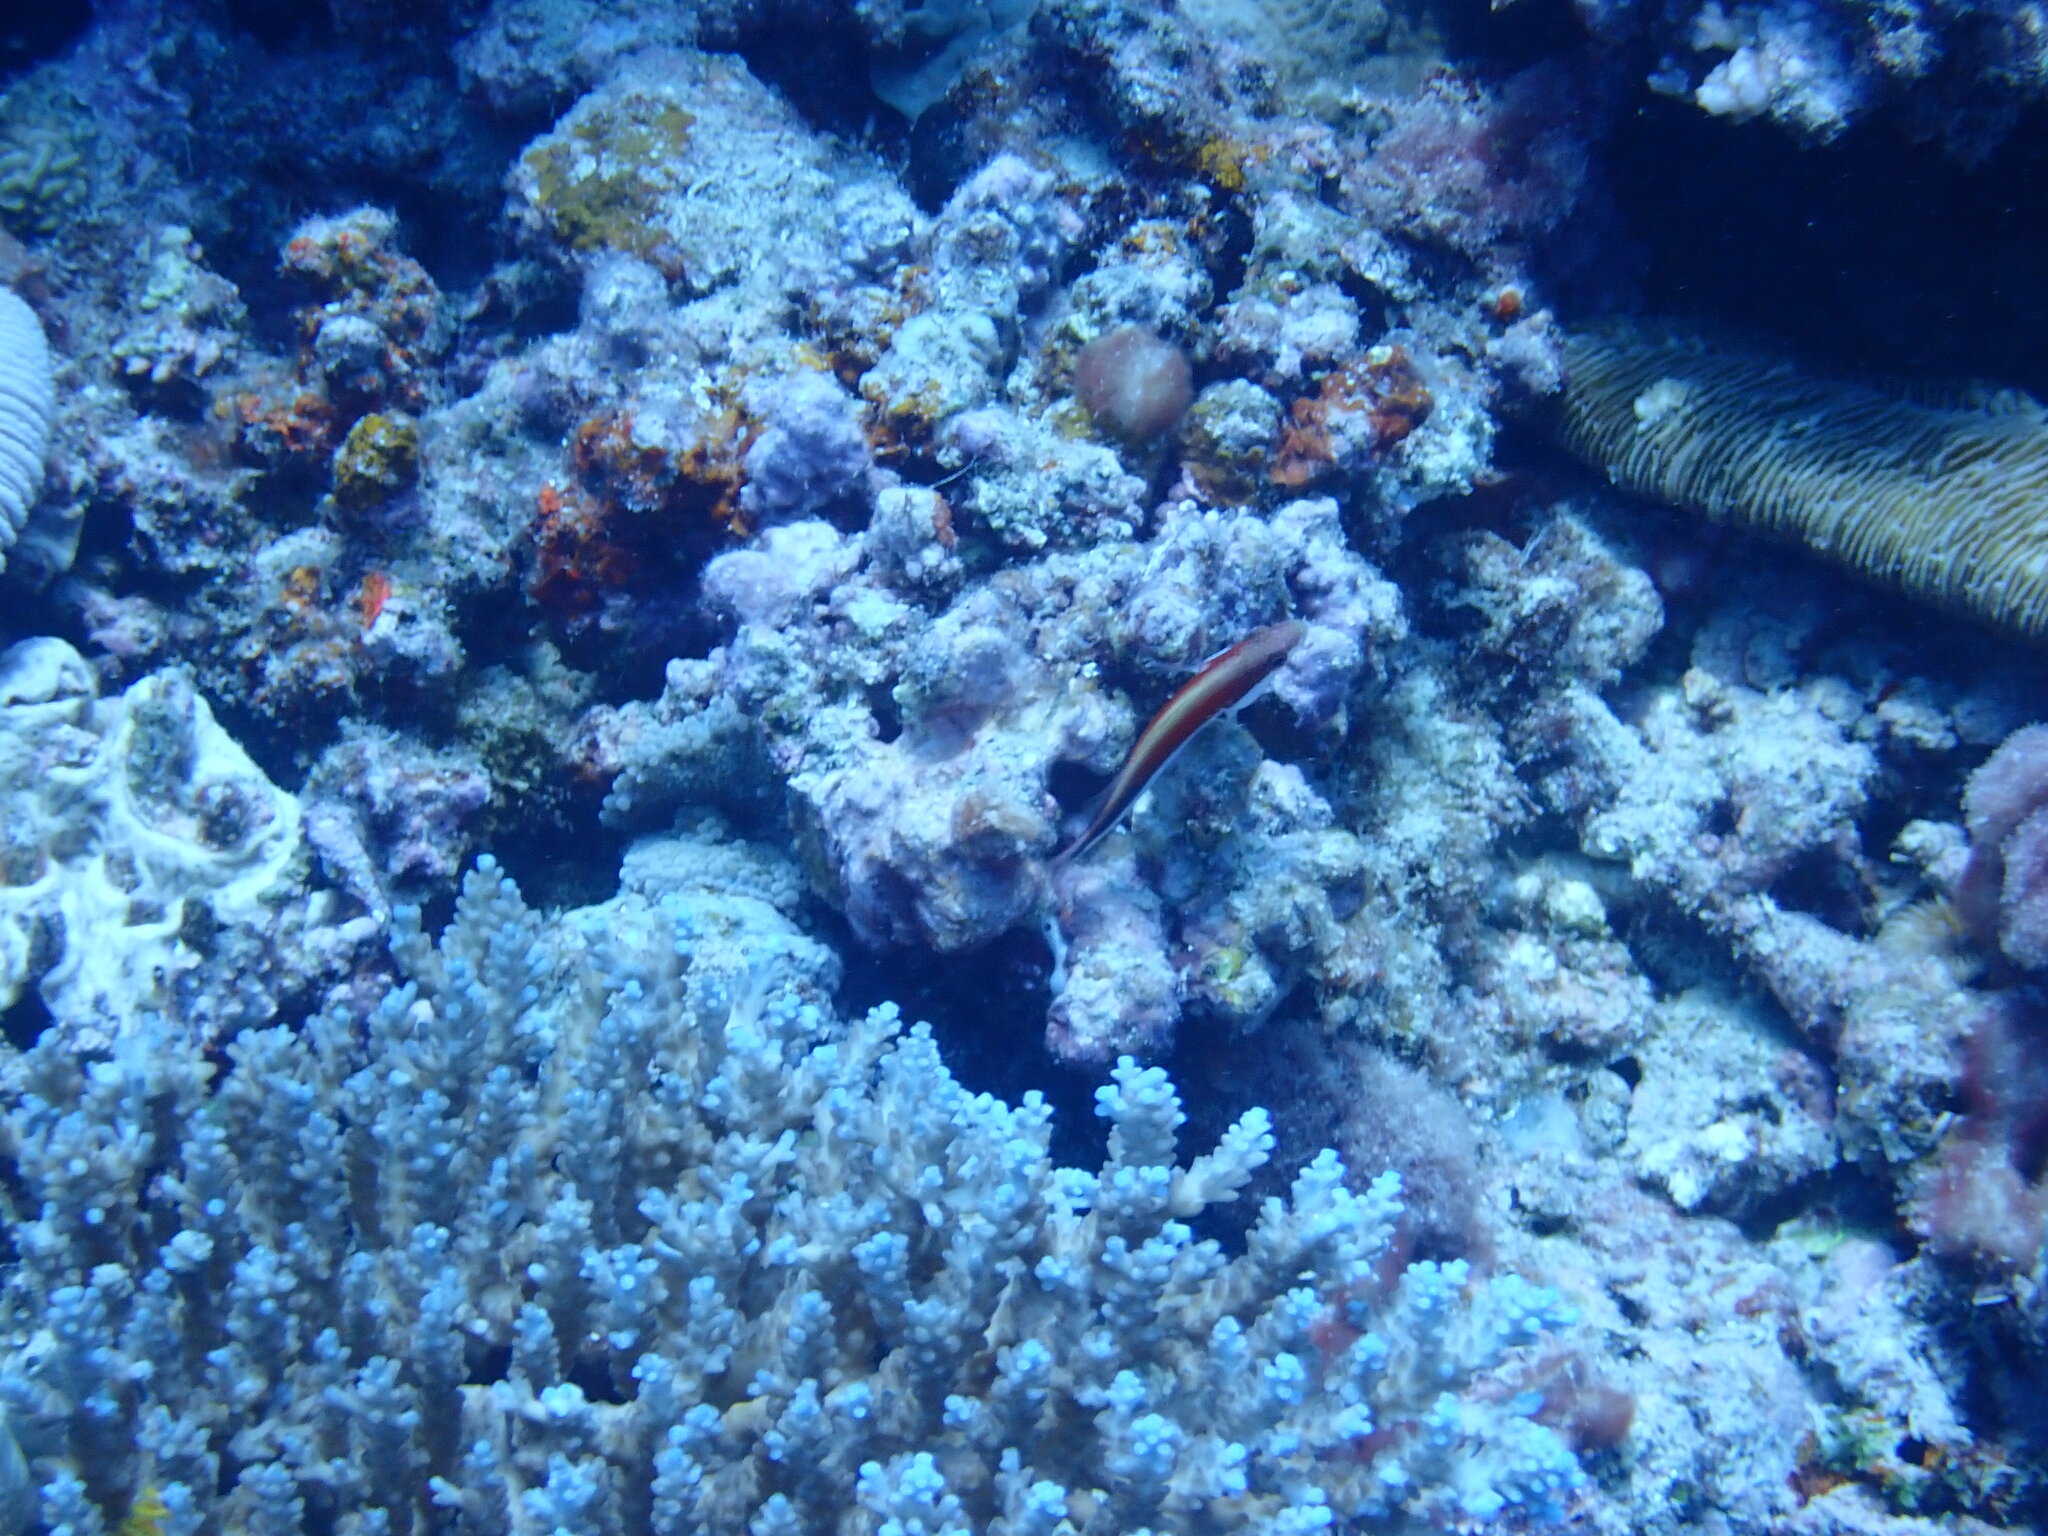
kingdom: Animalia
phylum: Chordata
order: Perciformes
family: Cirrhitidae
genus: Paracirrhites
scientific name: Paracirrhites forsteri
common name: Freckled hawkfish
